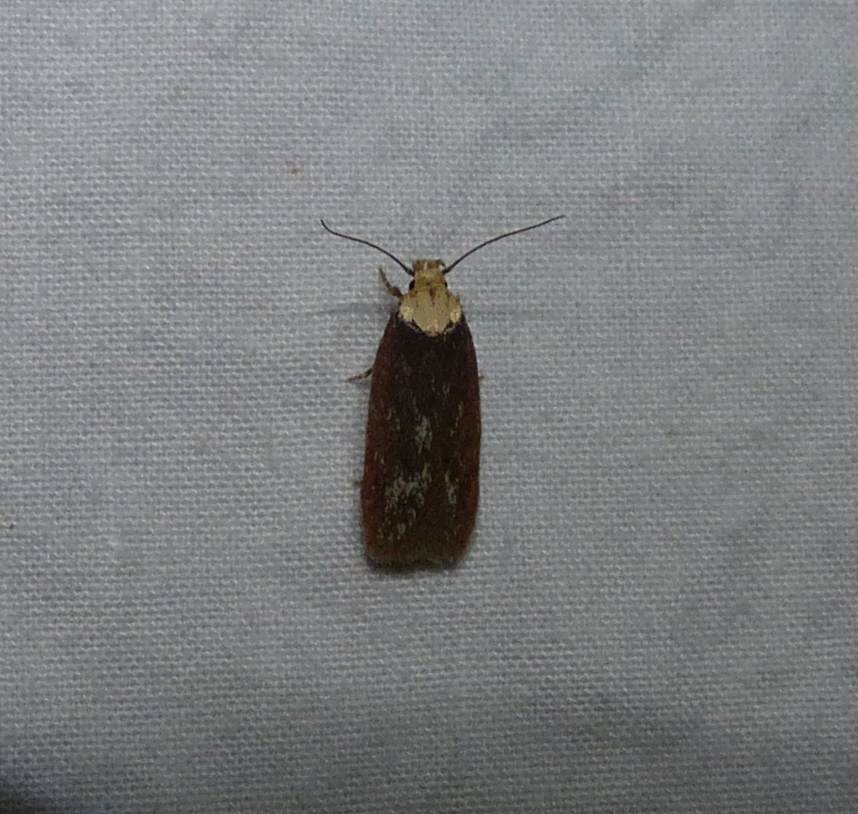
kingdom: Animalia
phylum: Arthropoda
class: Insecta
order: Lepidoptera
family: Depressariidae
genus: Depressaria
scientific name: Depressaria depressana
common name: Lost flat-body
